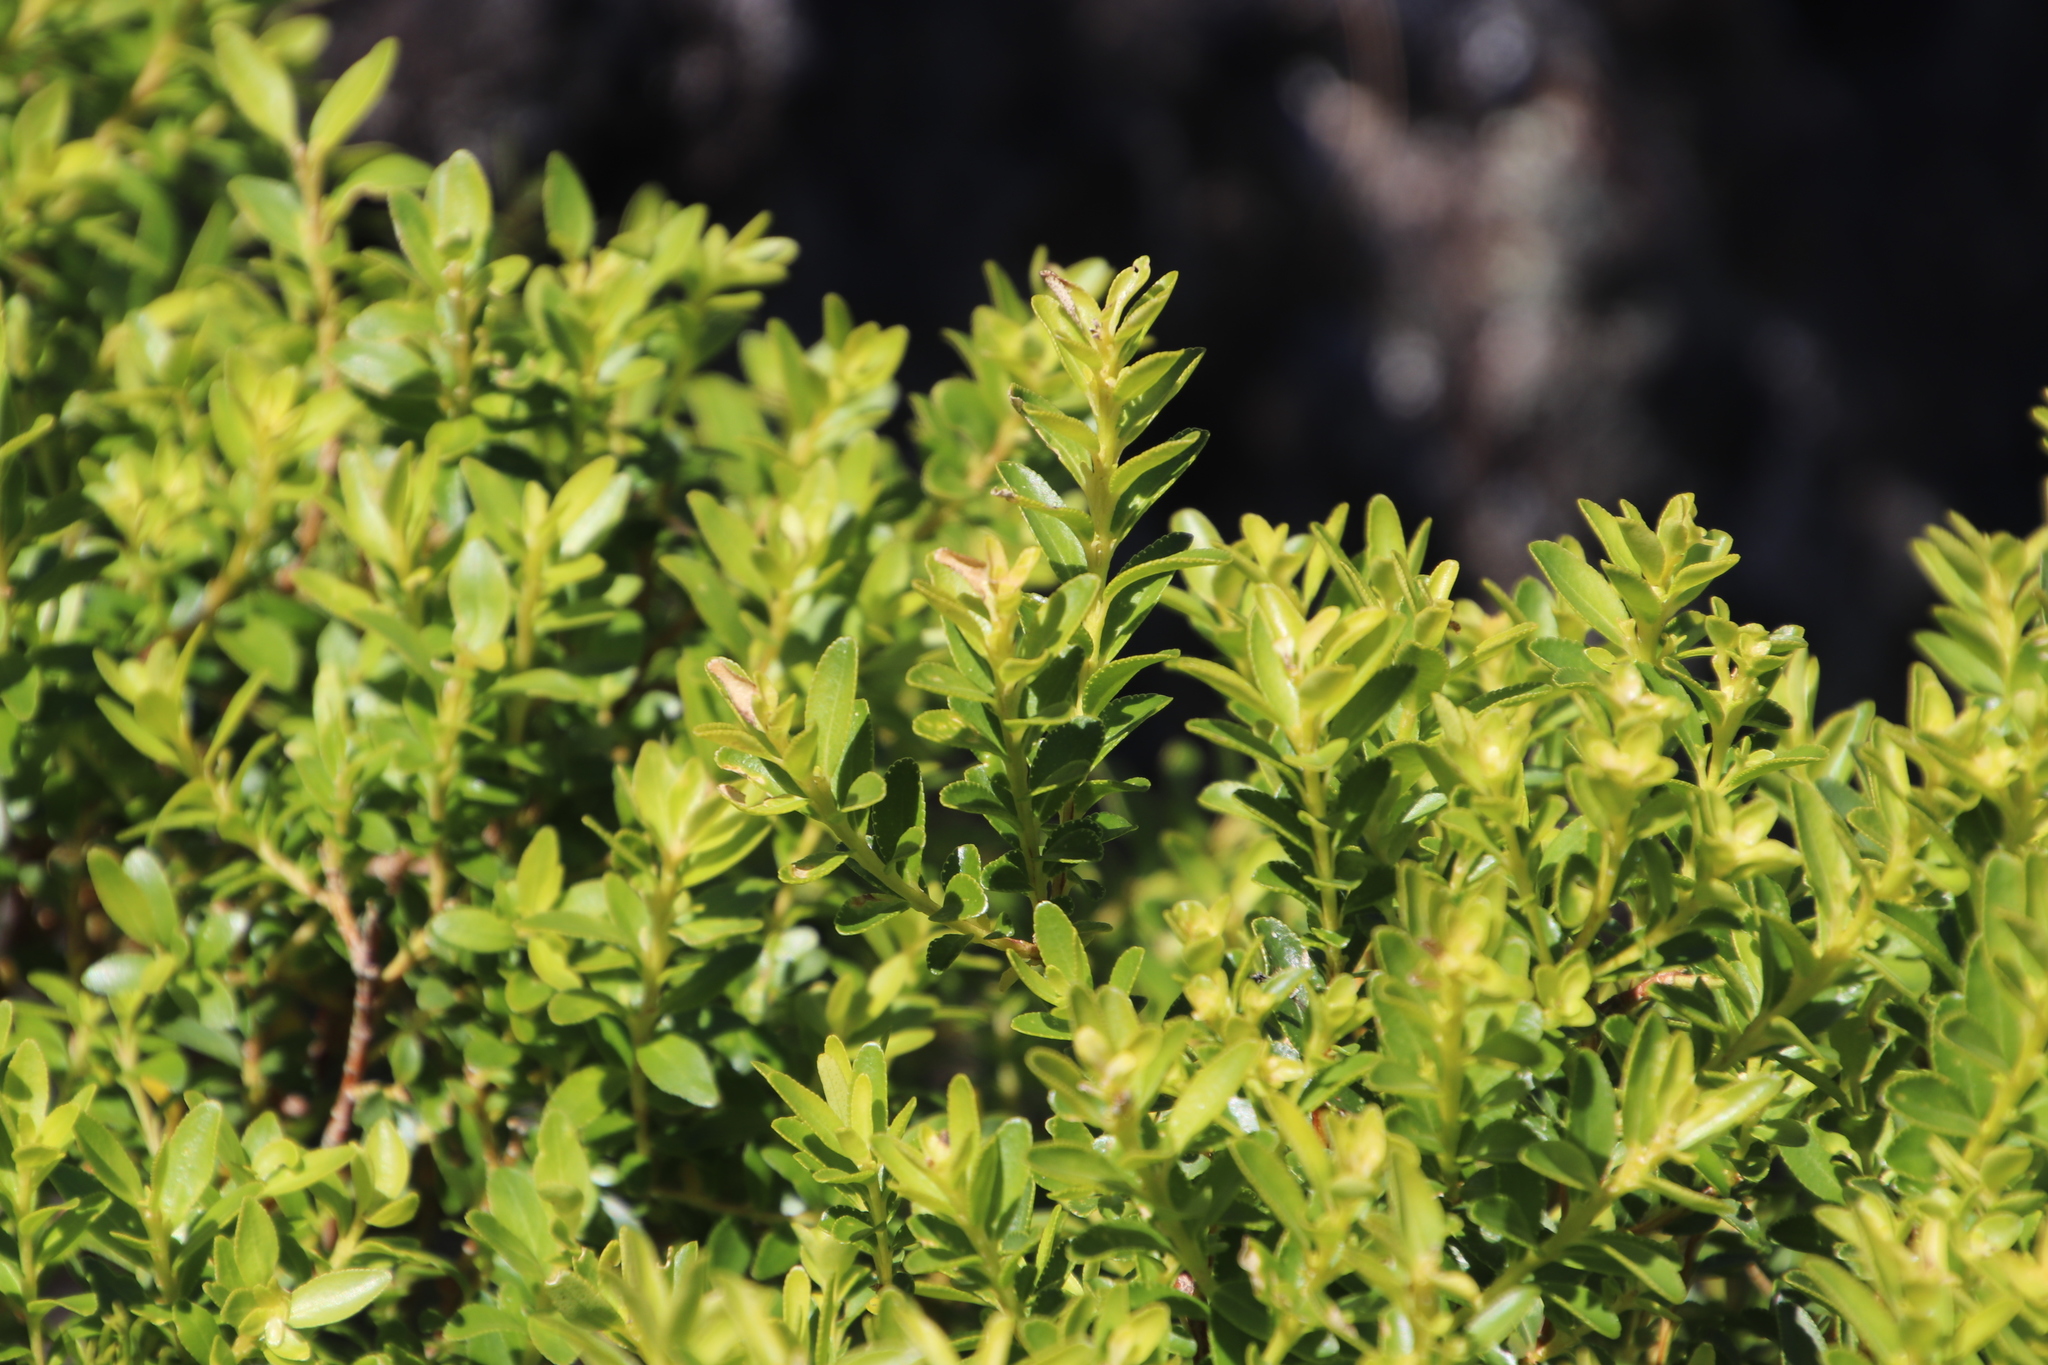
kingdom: Plantae
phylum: Tracheophyta
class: Magnoliopsida
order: Sapindales
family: Rutaceae
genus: Agathosma
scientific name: Agathosma crenulata
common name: Oval buchu
